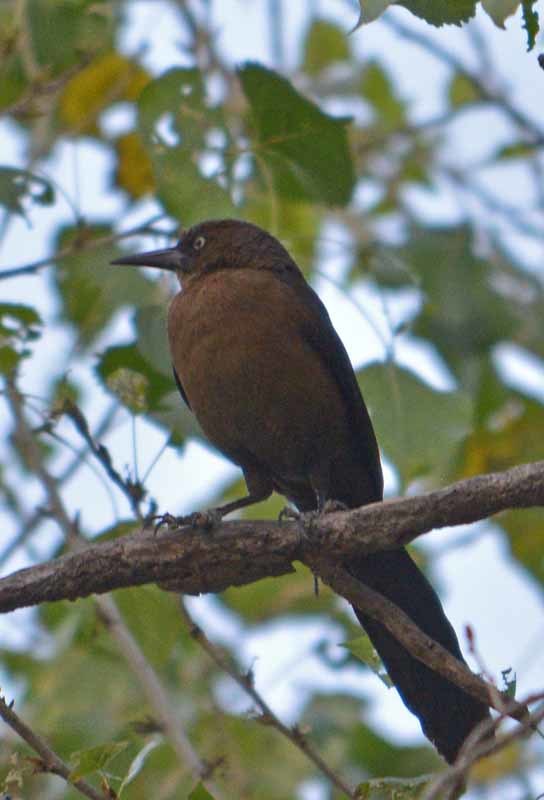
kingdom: Animalia
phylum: Chordata
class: Aves
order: Passeriformes
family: Icteridae
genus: Quiscalus
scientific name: Quiscalus mexicanus
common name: Great-tailed grackle
